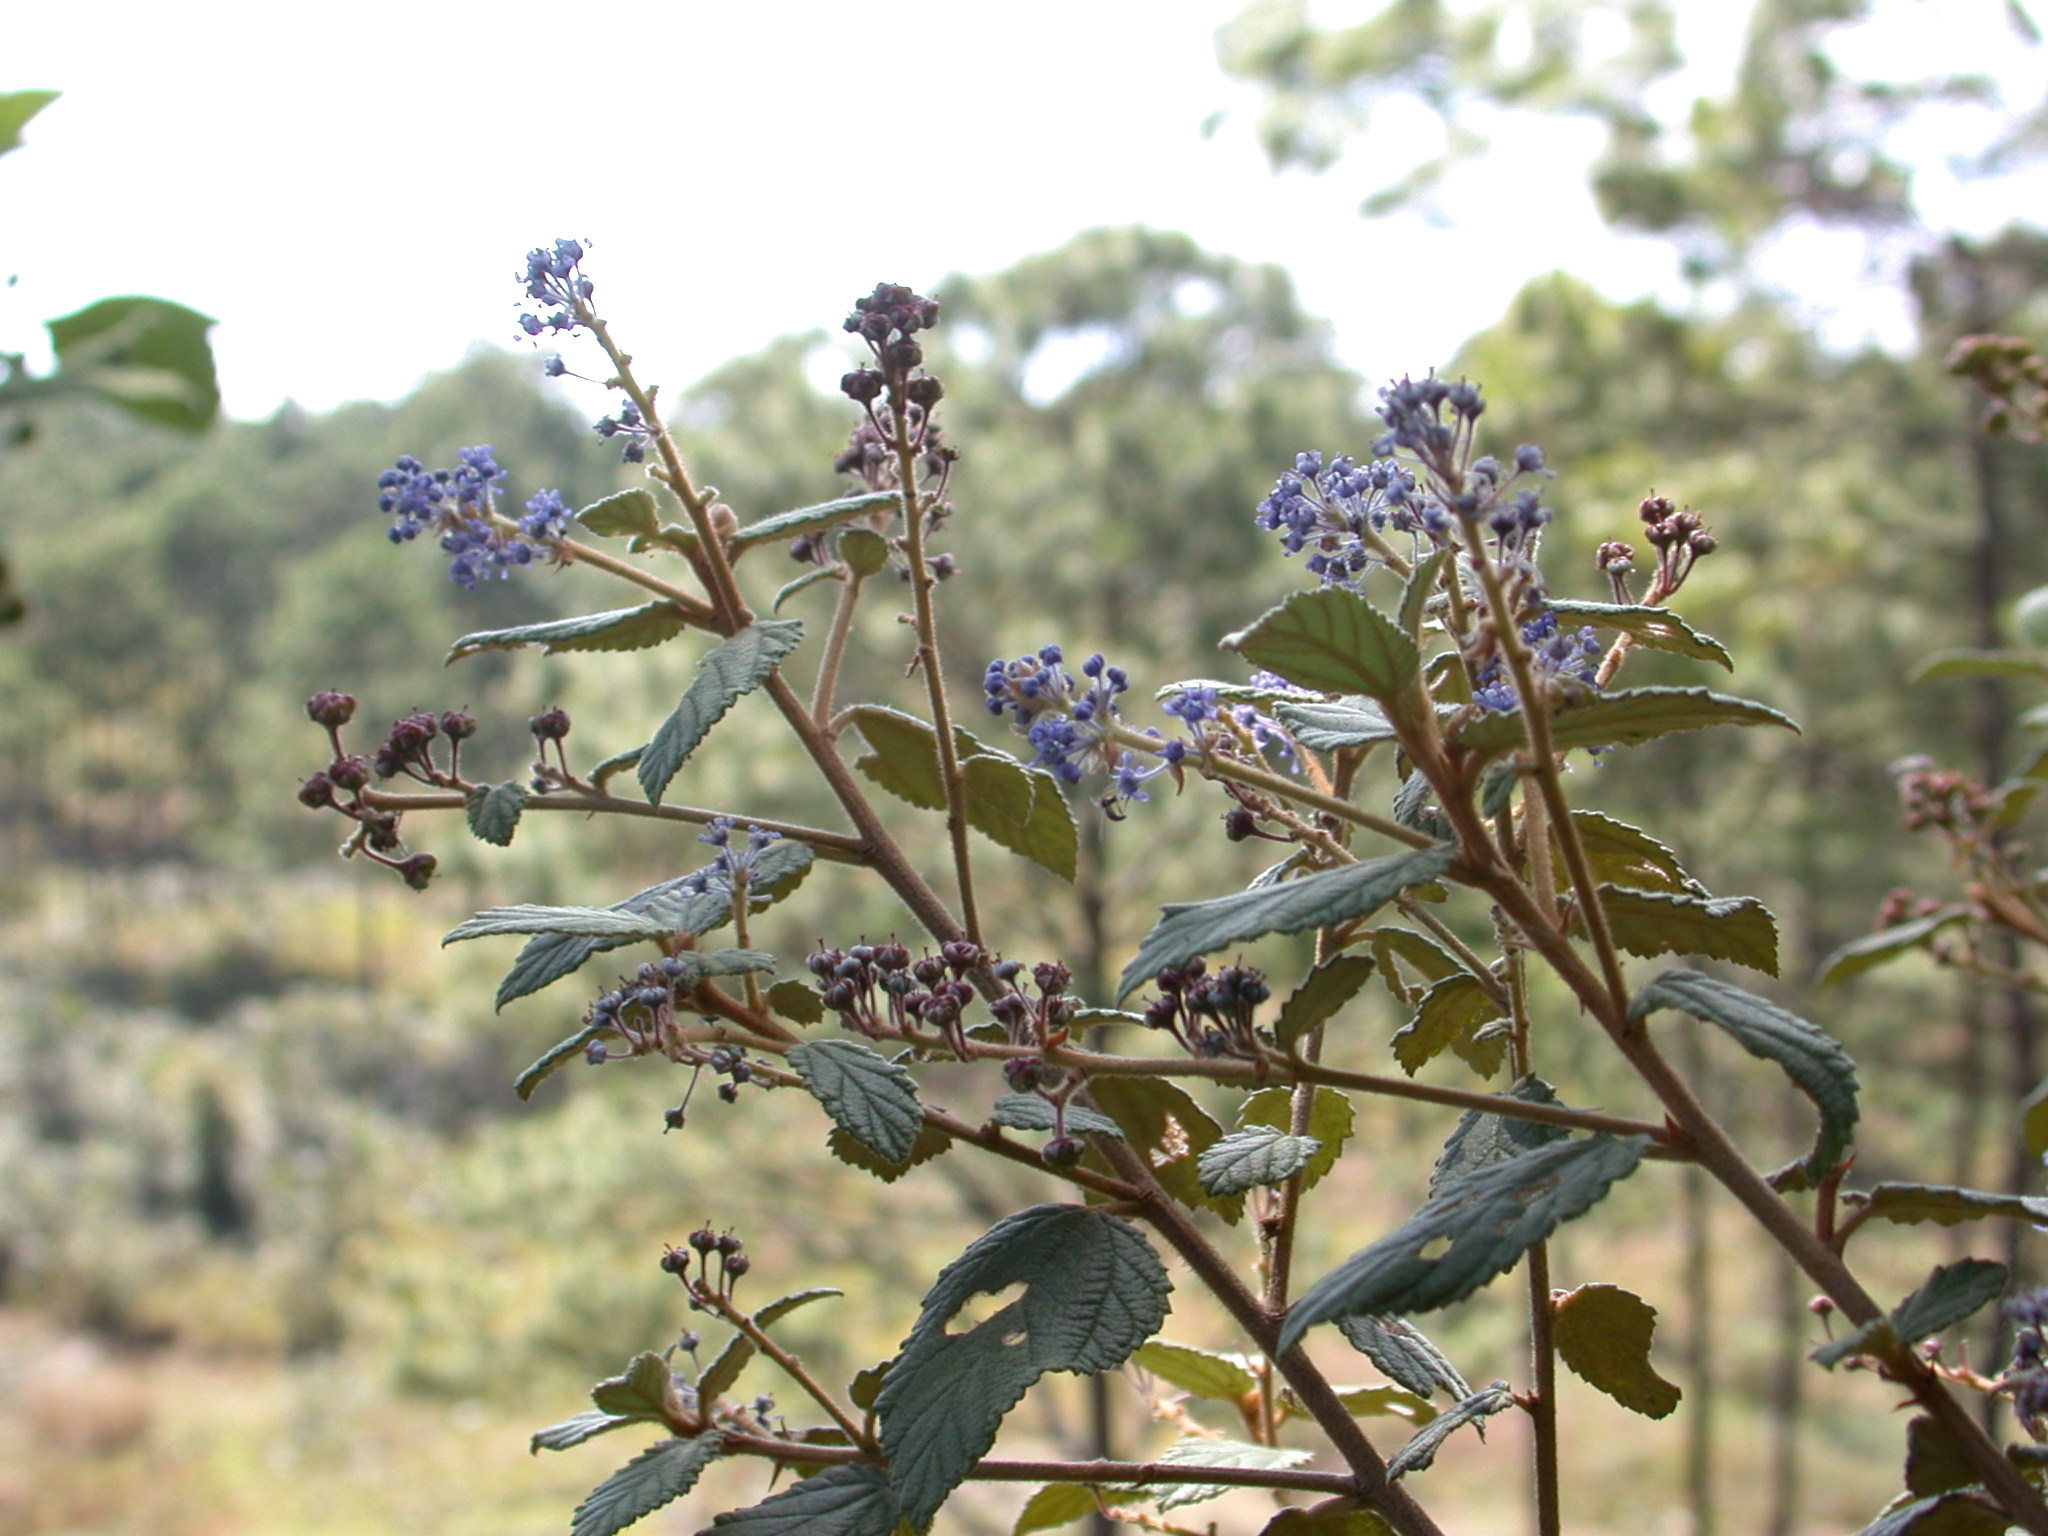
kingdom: Plantae
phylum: Tracheophyta
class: Magnoliopsida
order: Rosales
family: Rhamnaceae
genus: Ceanothus
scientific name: Ceanothus caeruleus
